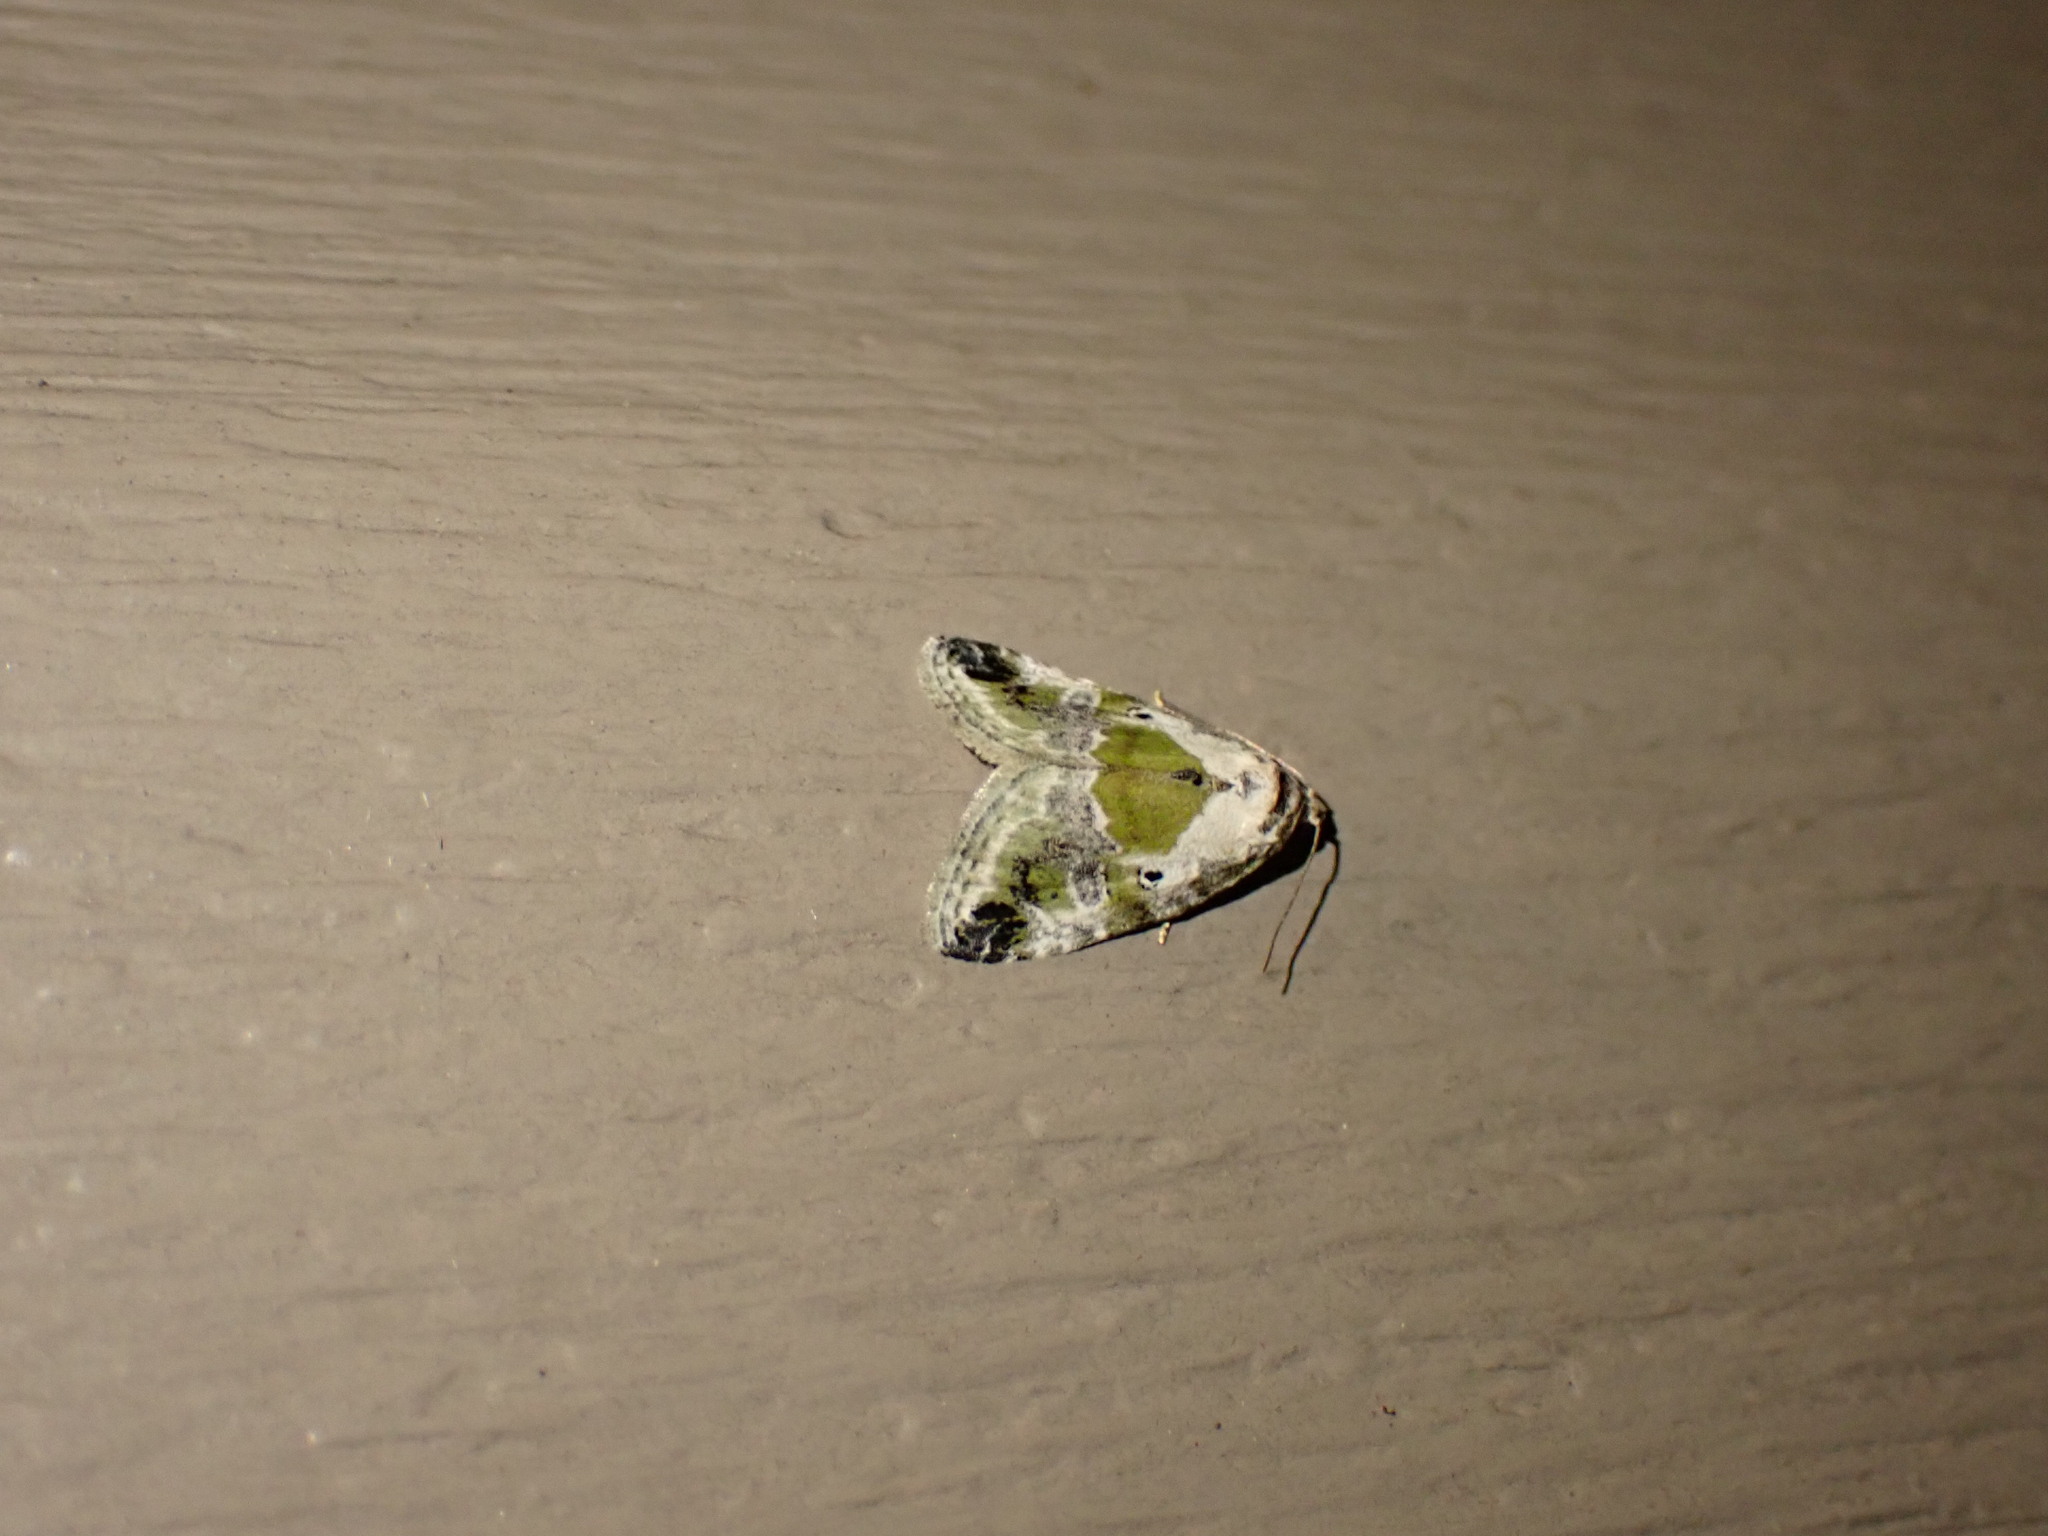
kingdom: Animalia
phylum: Arthropoda
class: Insecta
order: Lepidoptera
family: Noctuidae
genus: Maliattha
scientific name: Maliattha synochitis
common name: Black-dotted glyph
